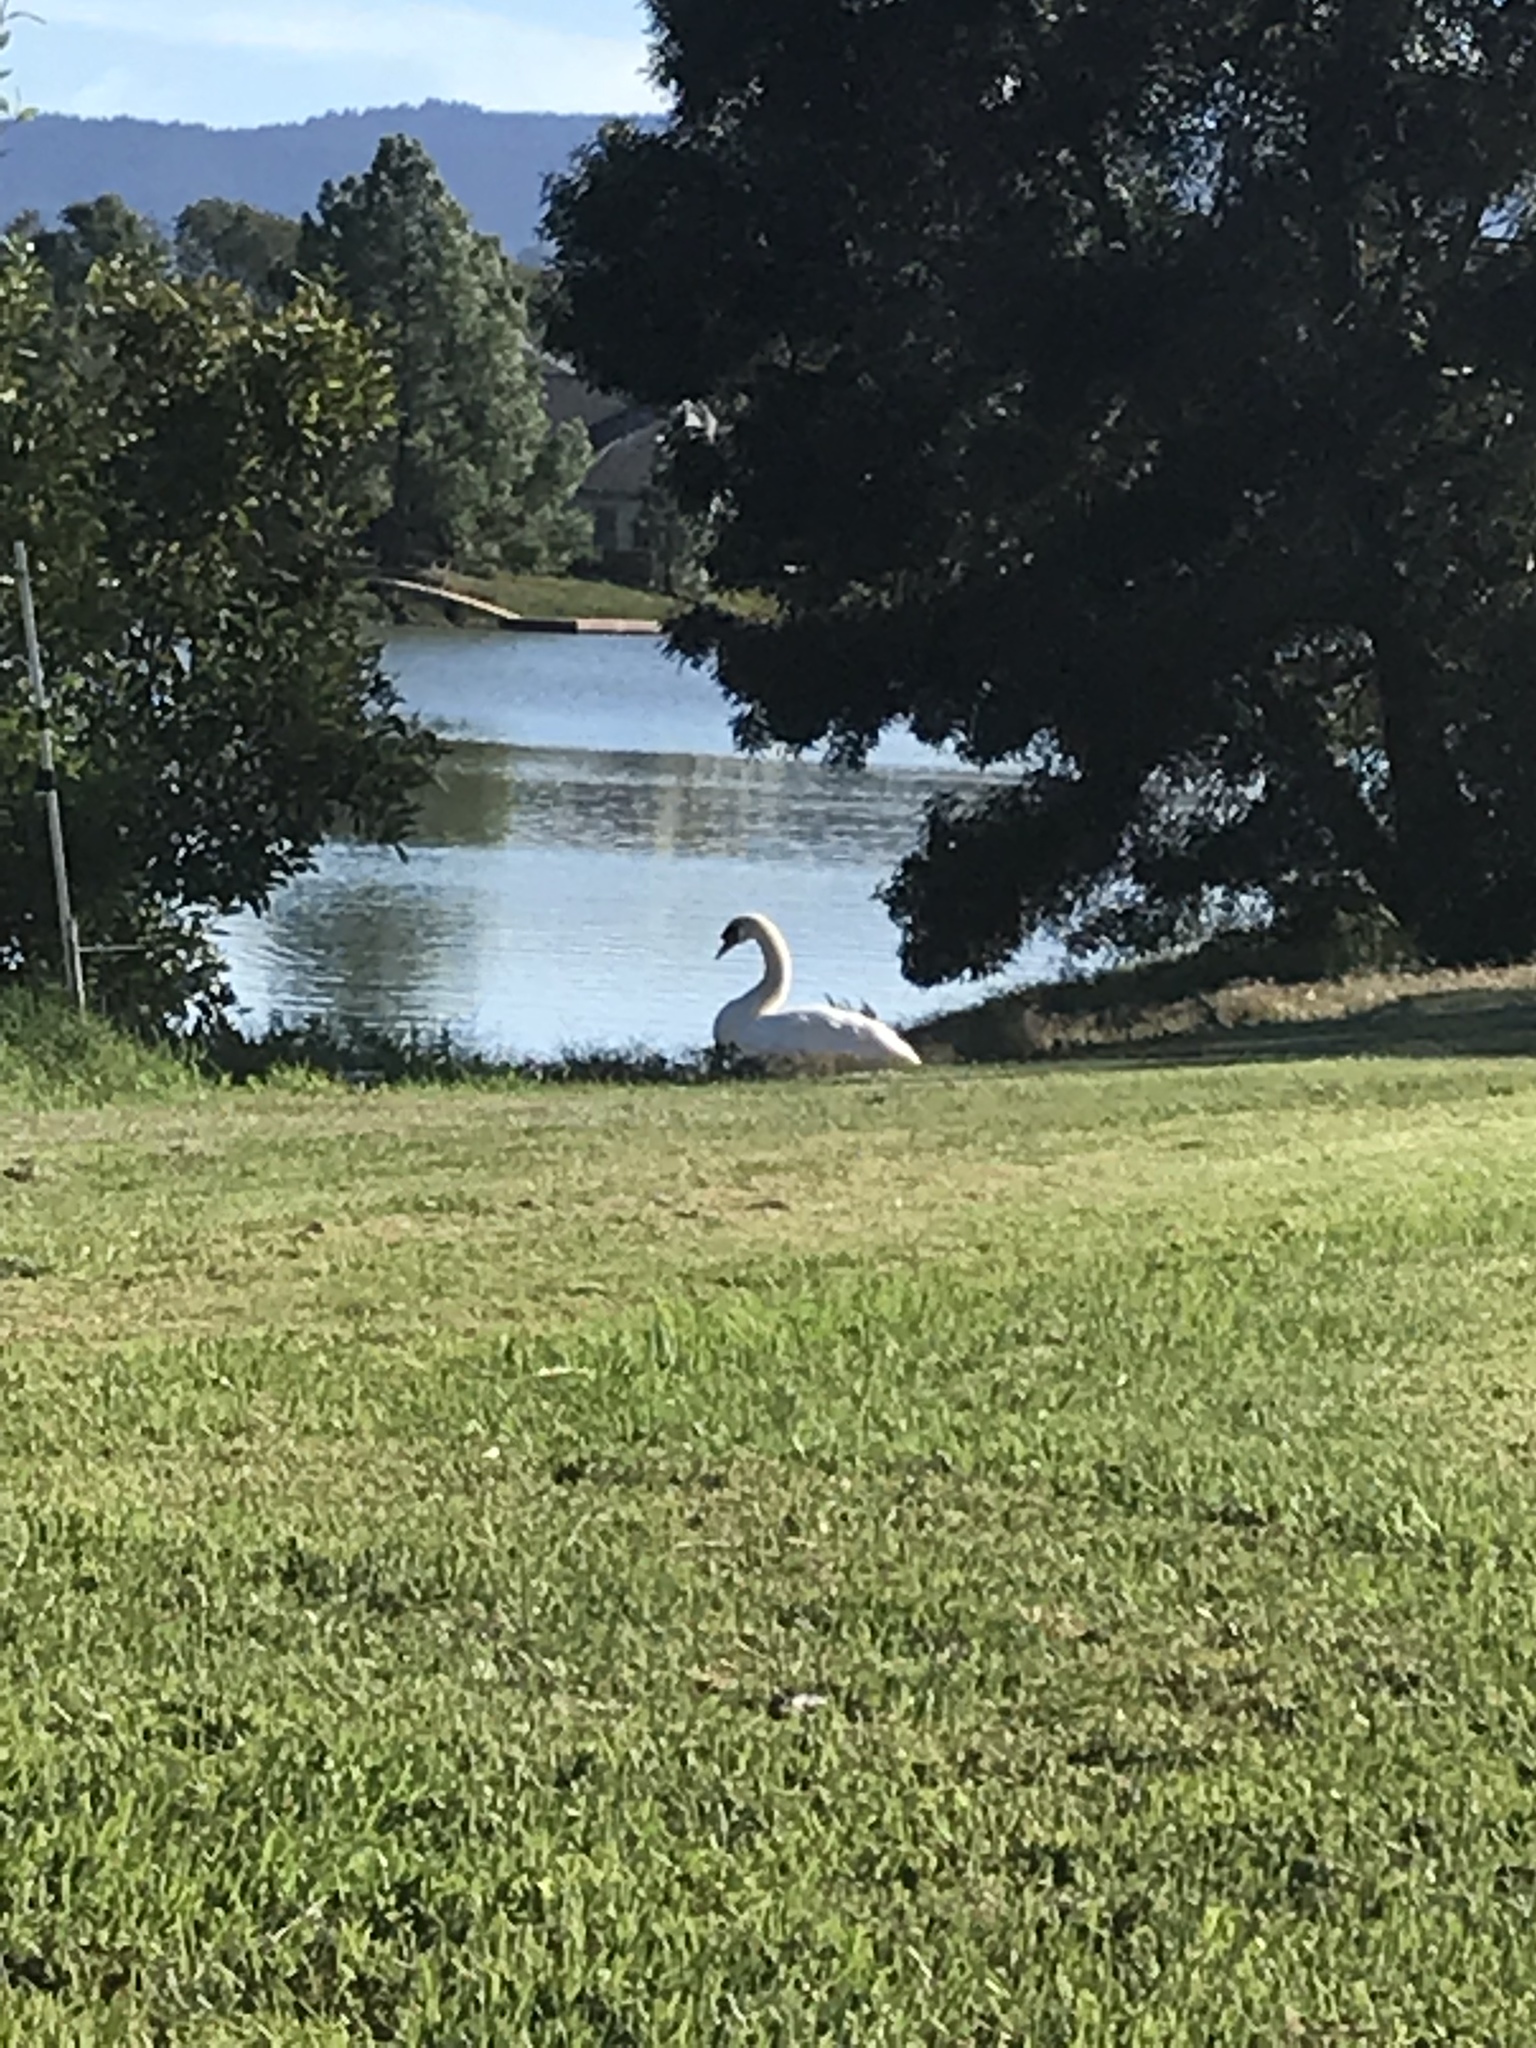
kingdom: Animalia
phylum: Chordata
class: Aves
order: Anseriformes
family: Anatidae
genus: Cygnus
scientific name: Cygnus olor
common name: Mute swan
